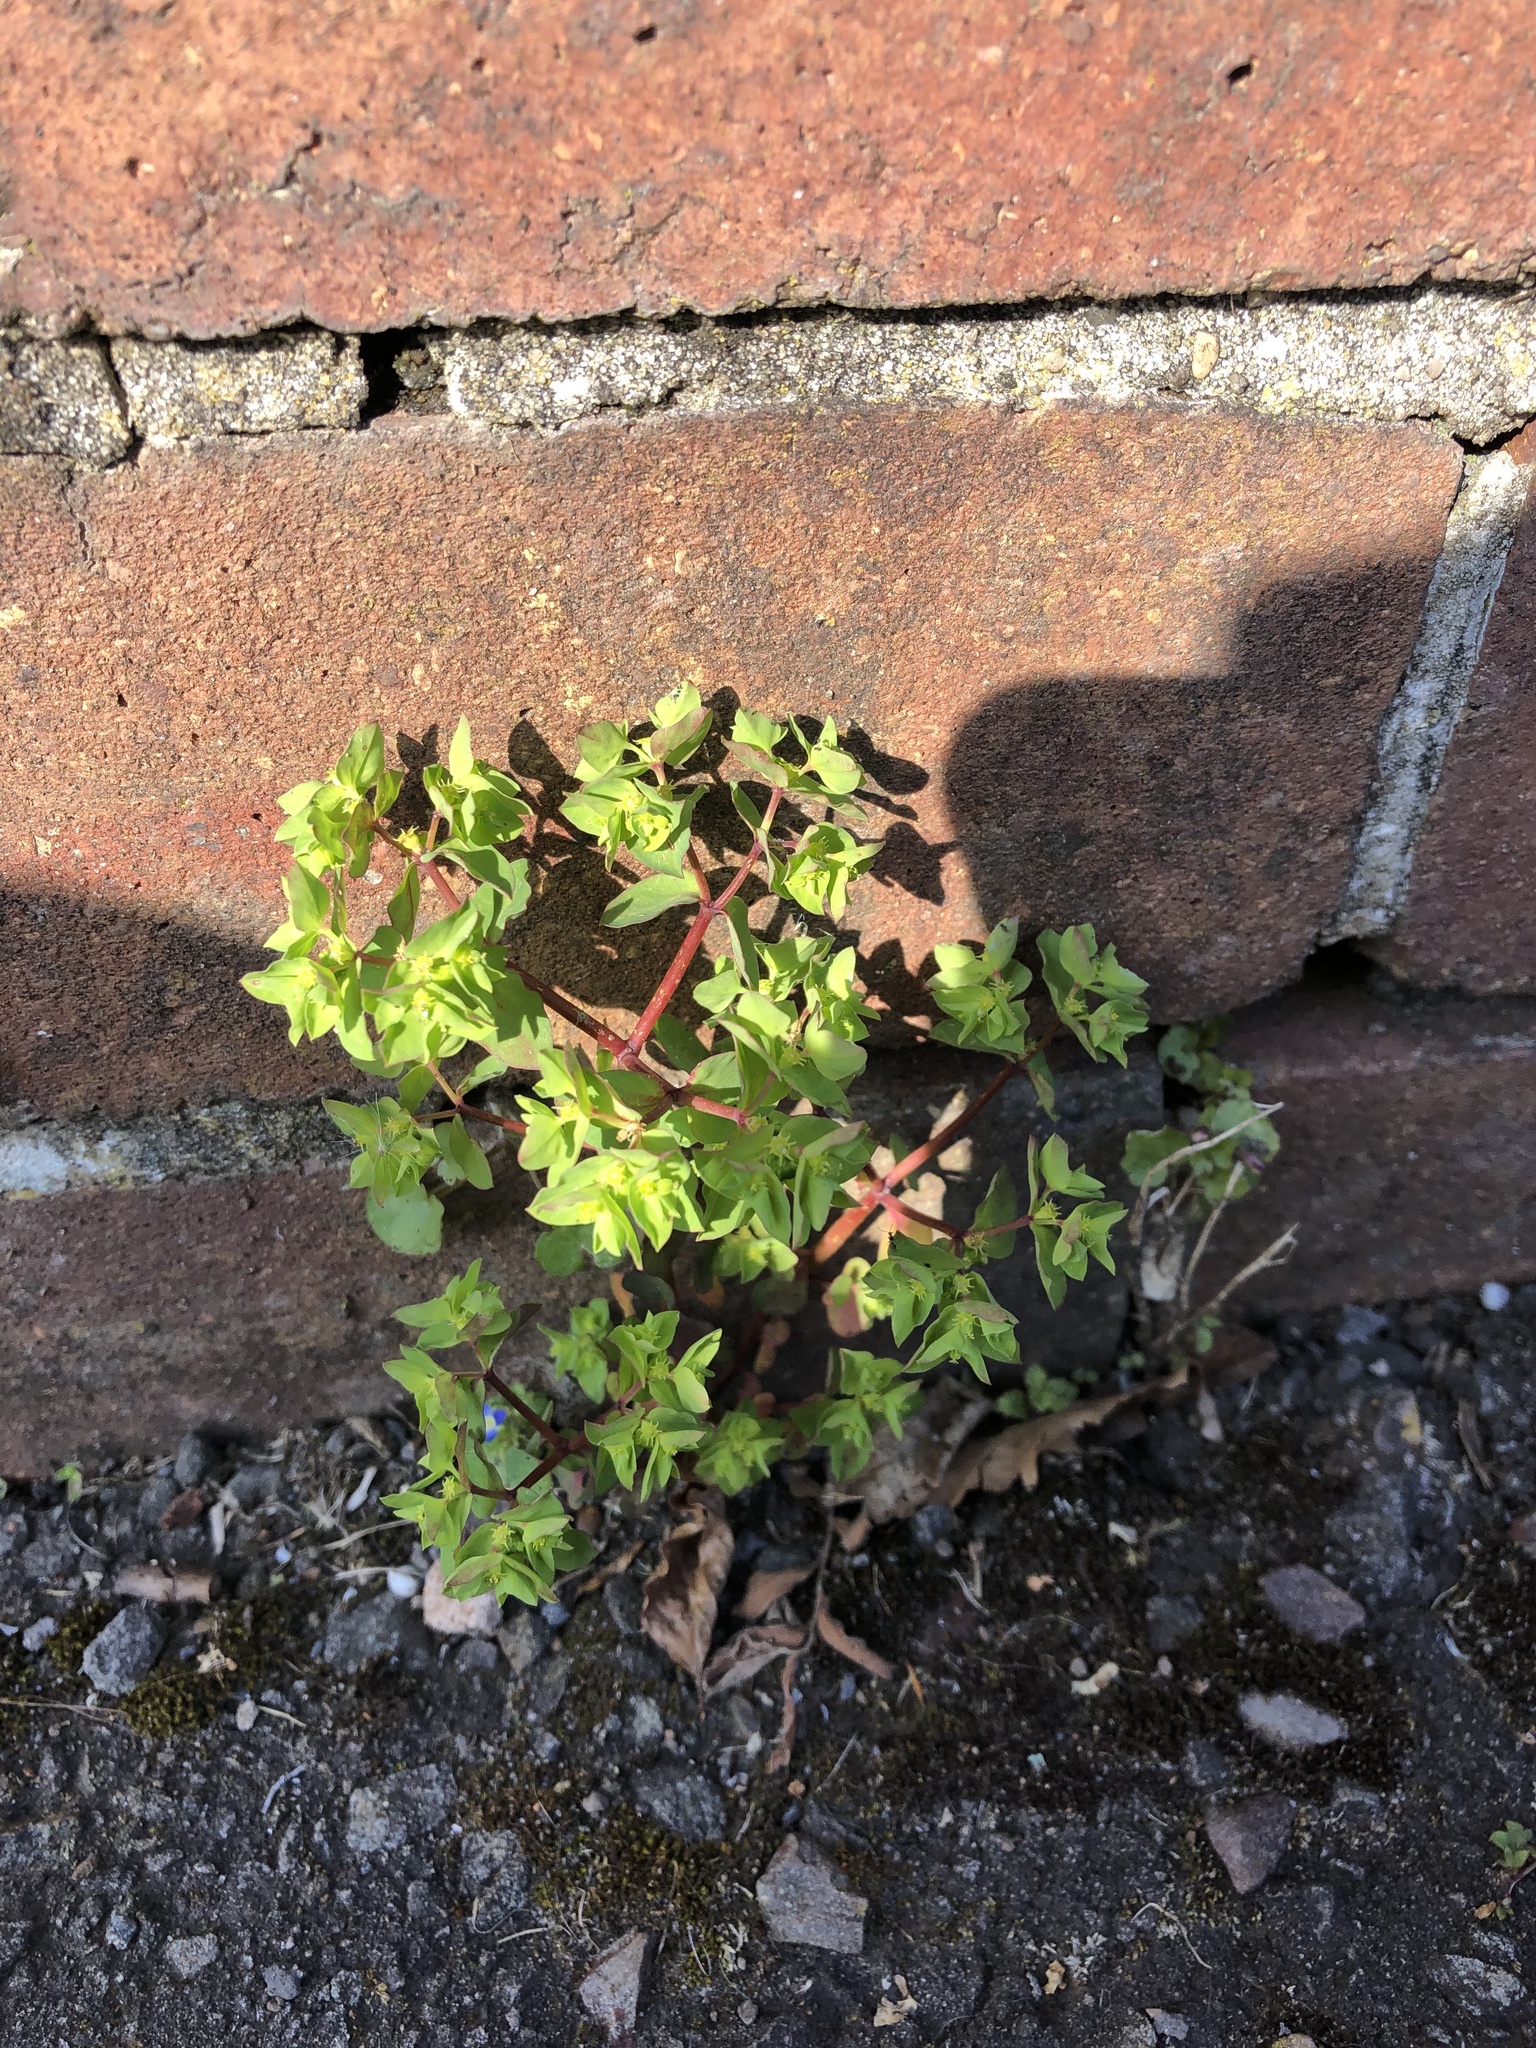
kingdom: Plantae
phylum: Tracheophyta
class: Magnoliopsida
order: Malpighiales
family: Euphorbiaceae
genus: Euphorbia
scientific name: Euphorbia peplus
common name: Petty spurge
